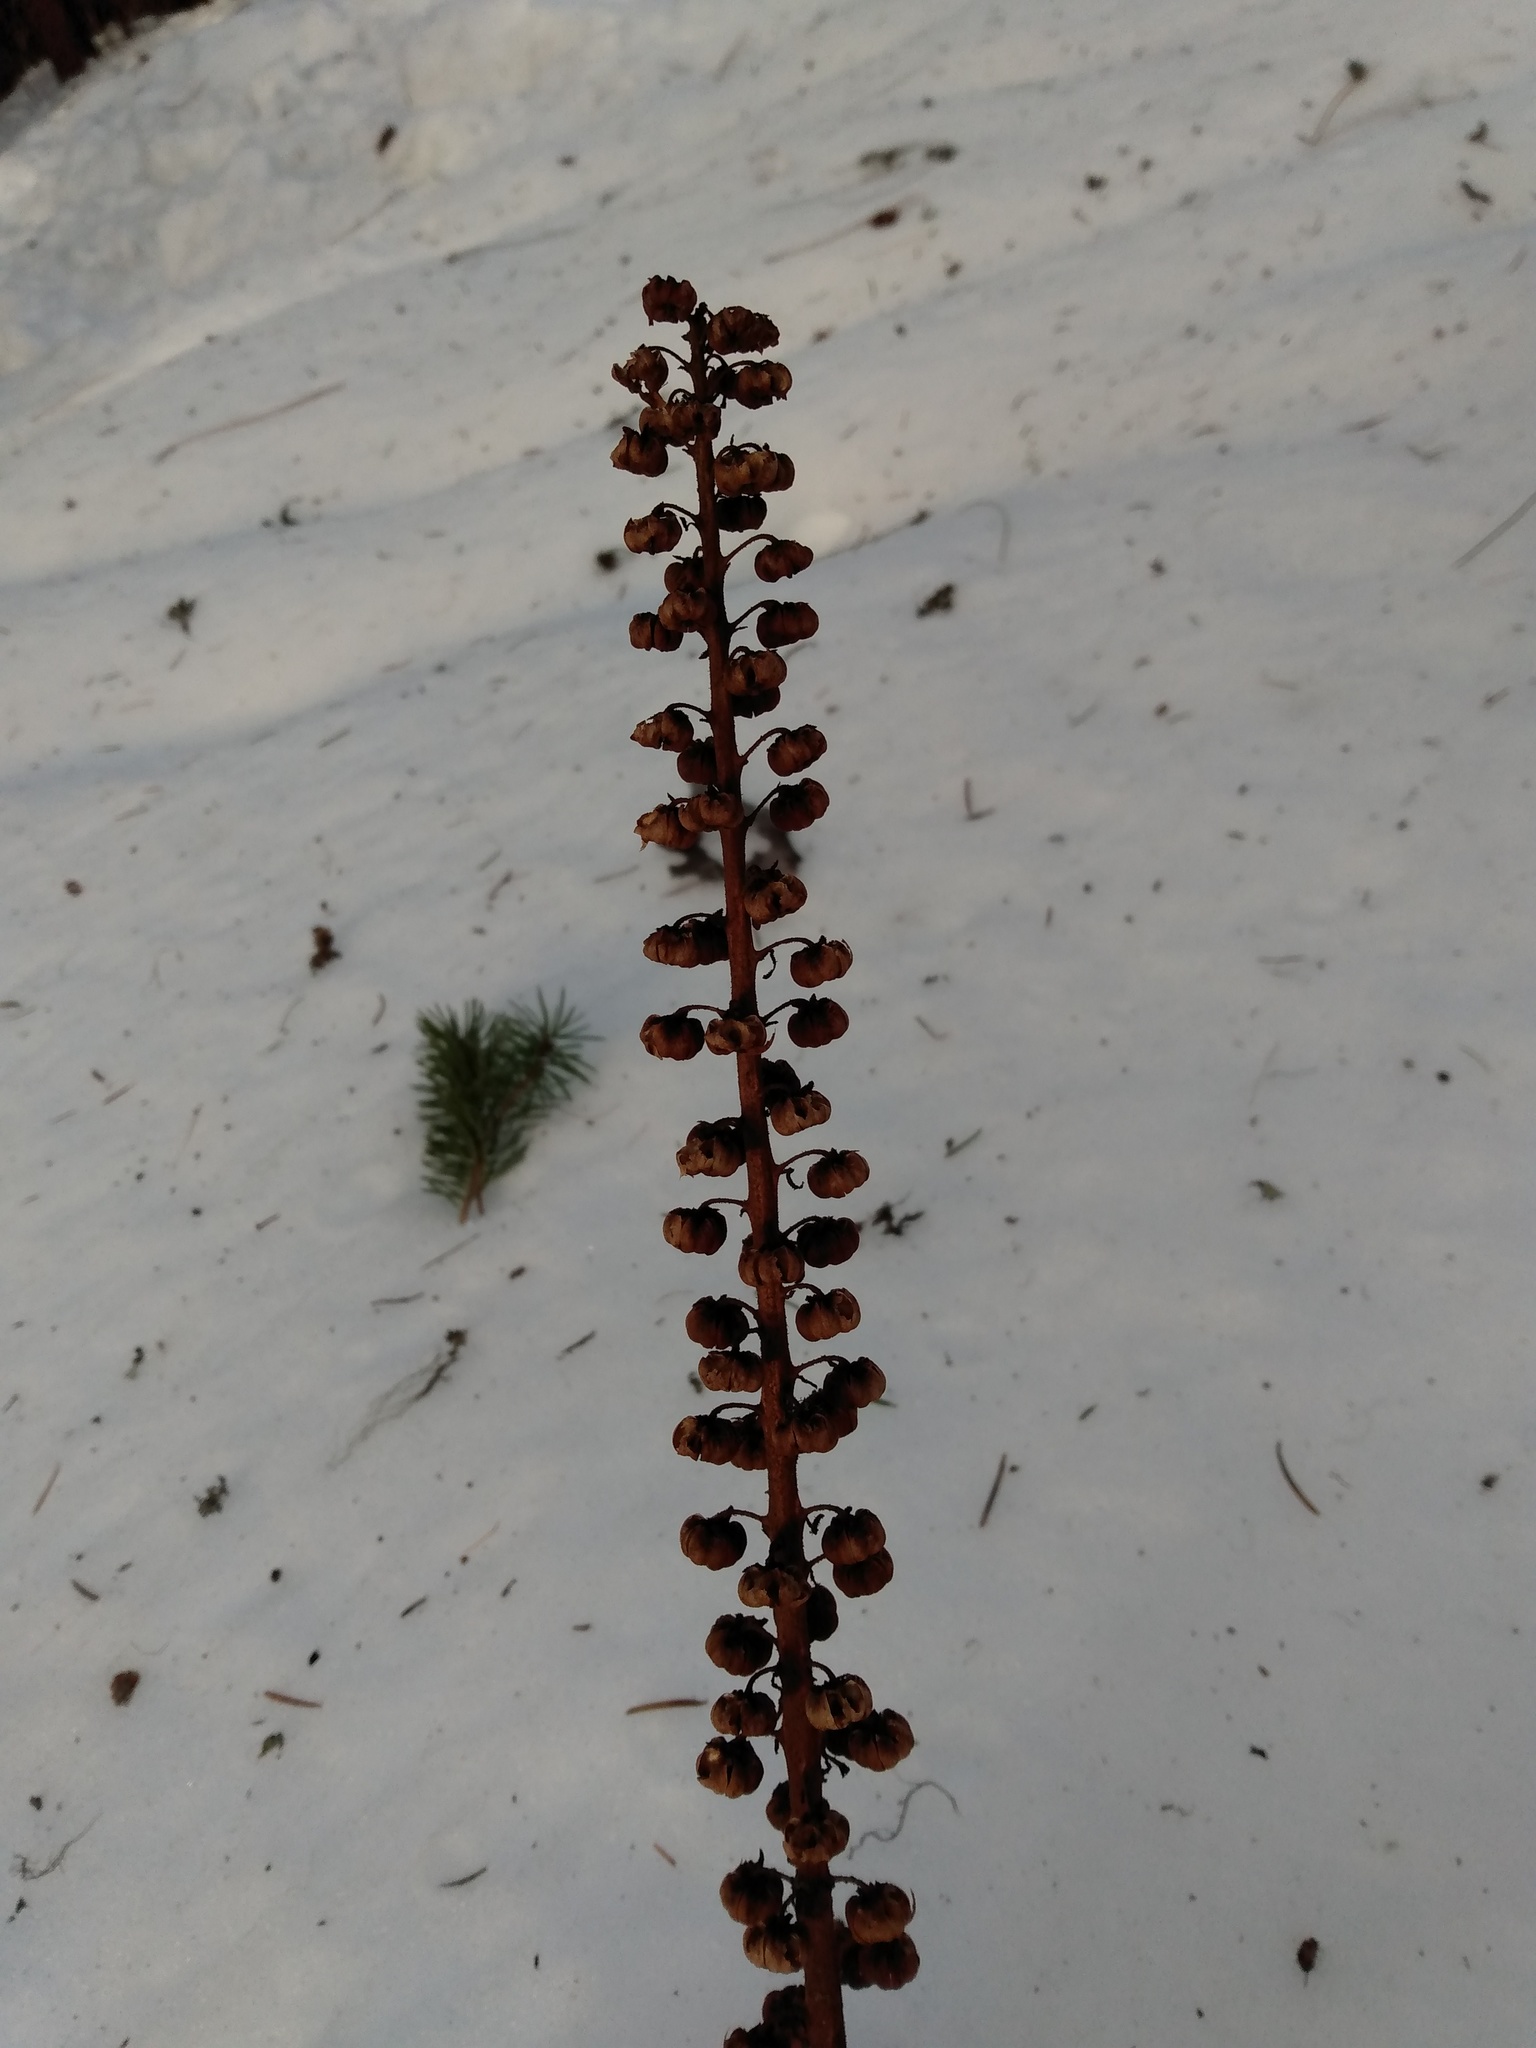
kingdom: Plantae
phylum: Tracheophyta
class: Magnoliopsida
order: Ericales
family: Ericaceae
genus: Pterospora
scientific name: Pterospora andromedea
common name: Giant bird's-nest
